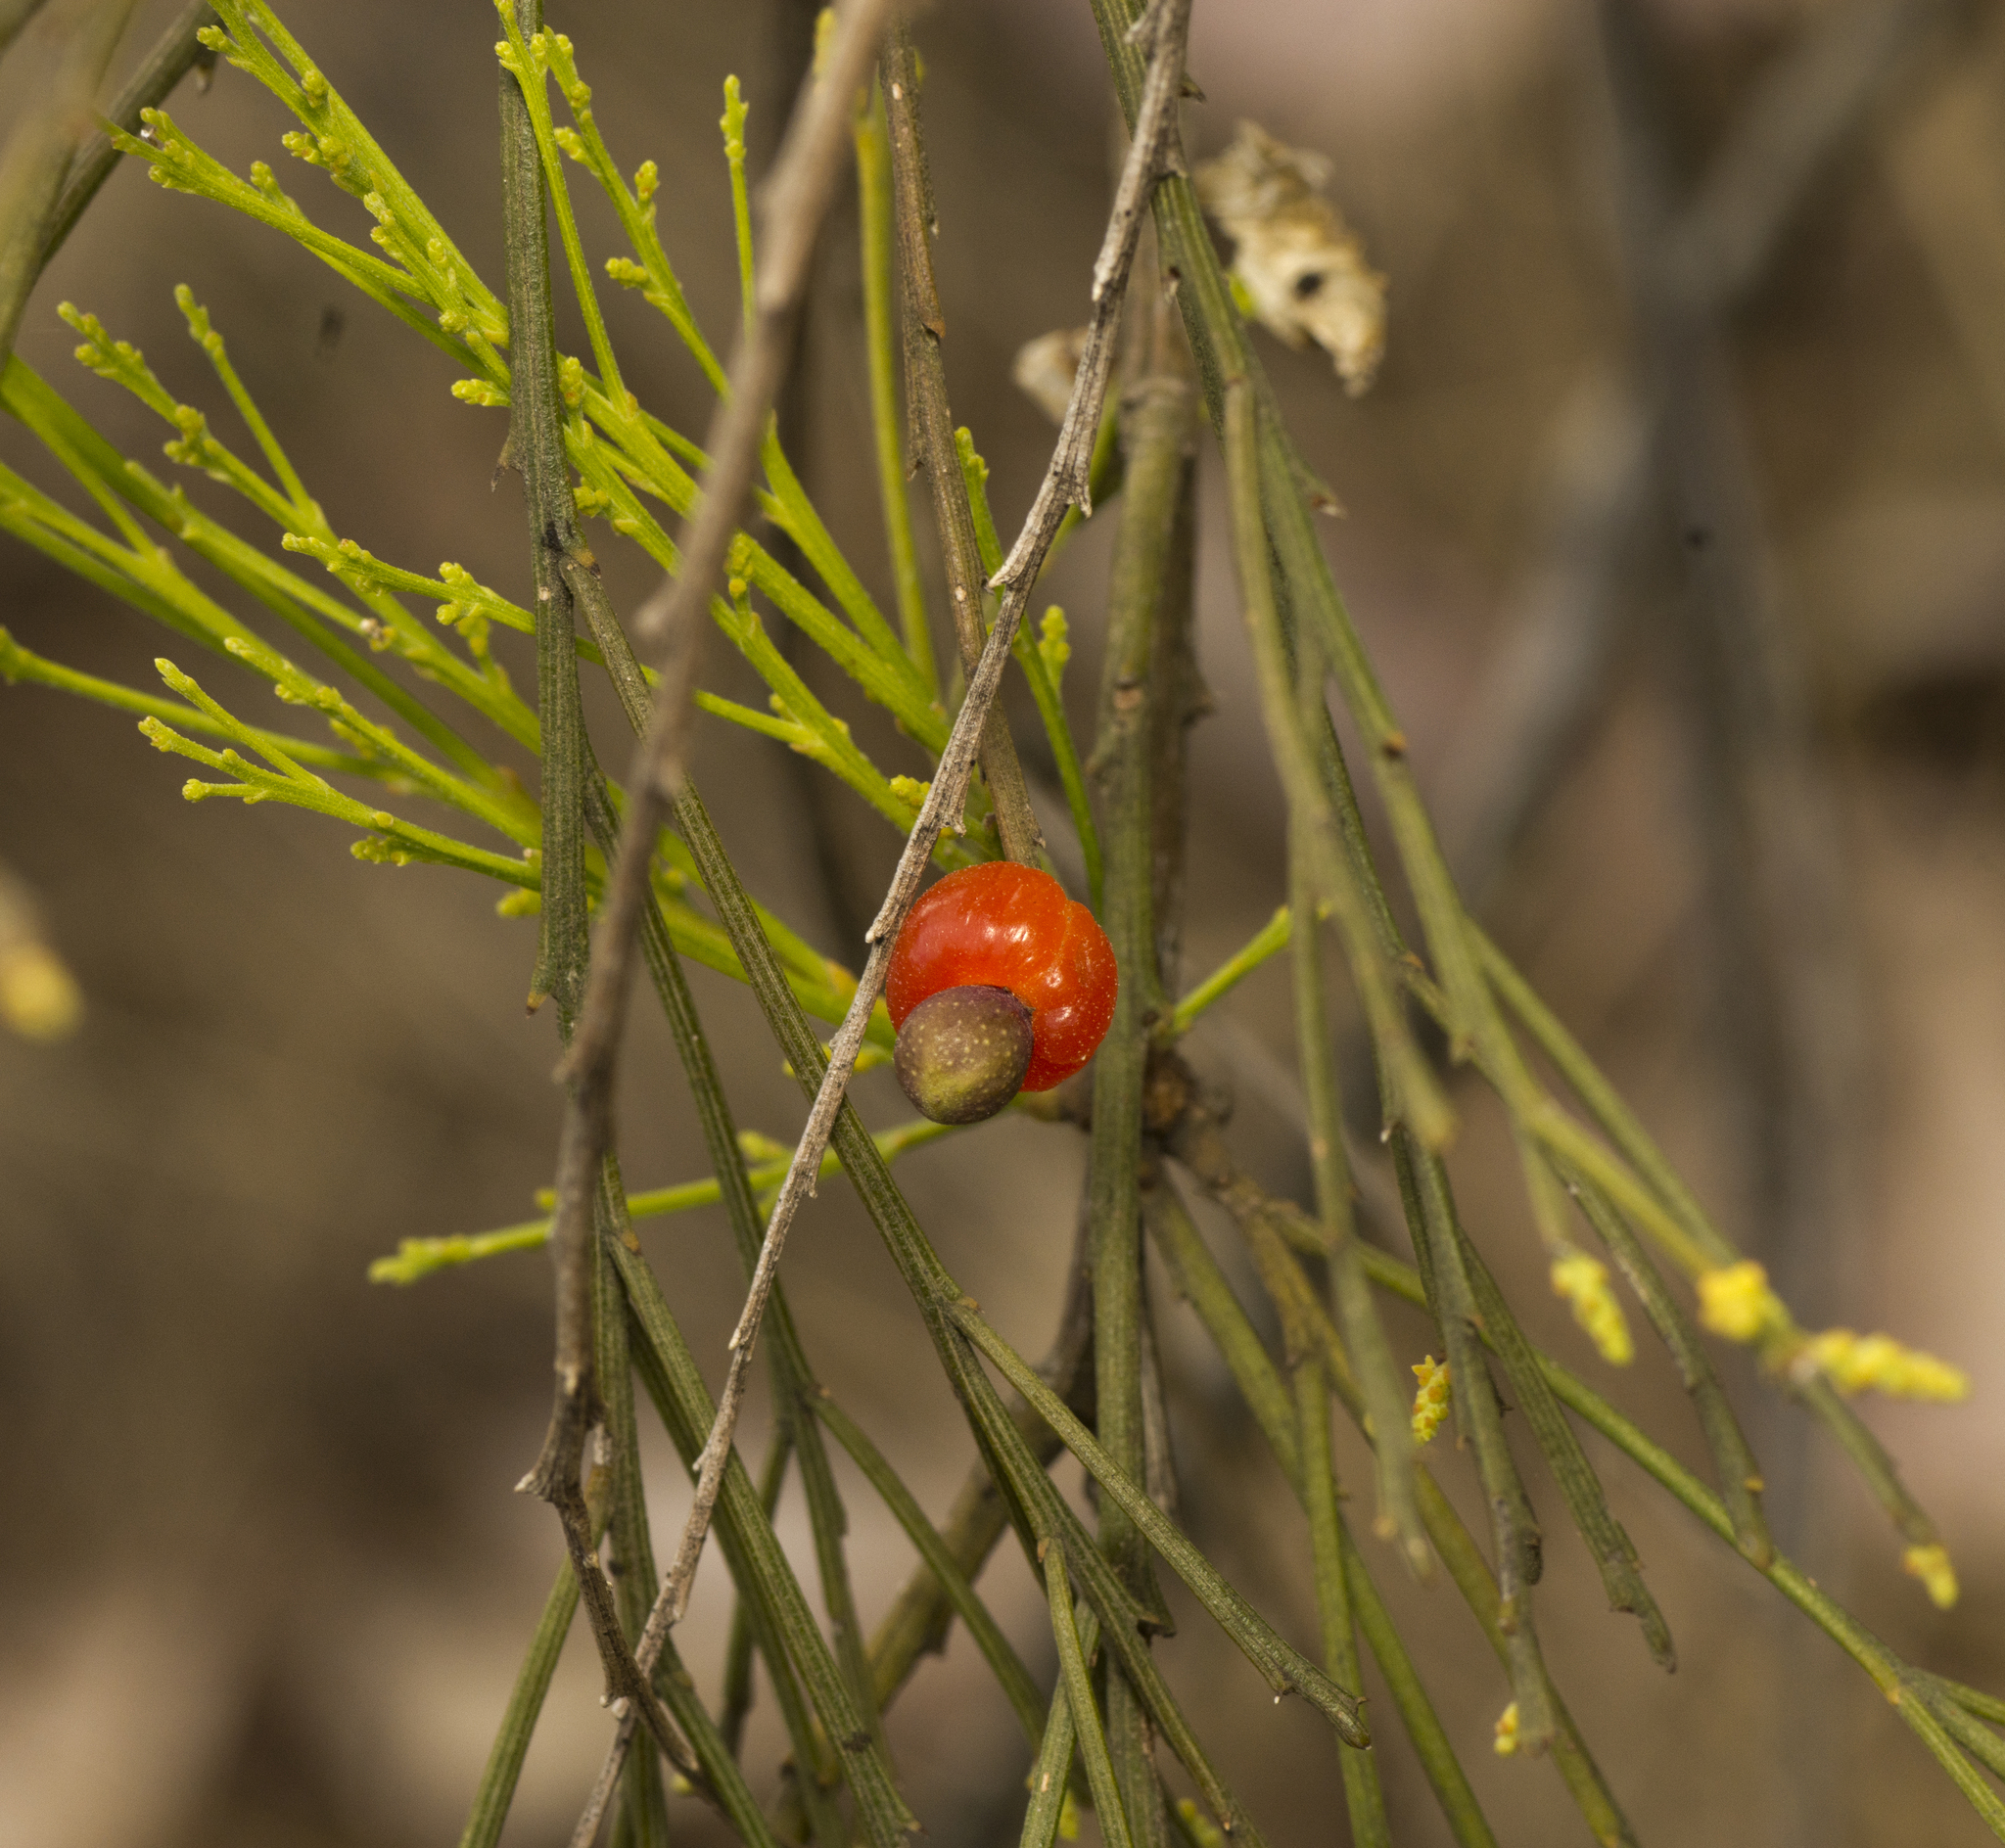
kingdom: Plantae
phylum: Tracheophyta
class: Magnoliopsida
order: Santalales
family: Santalaceae
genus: Exocarpos
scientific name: Exocarpos cupressiformis
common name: Cherry ballart
